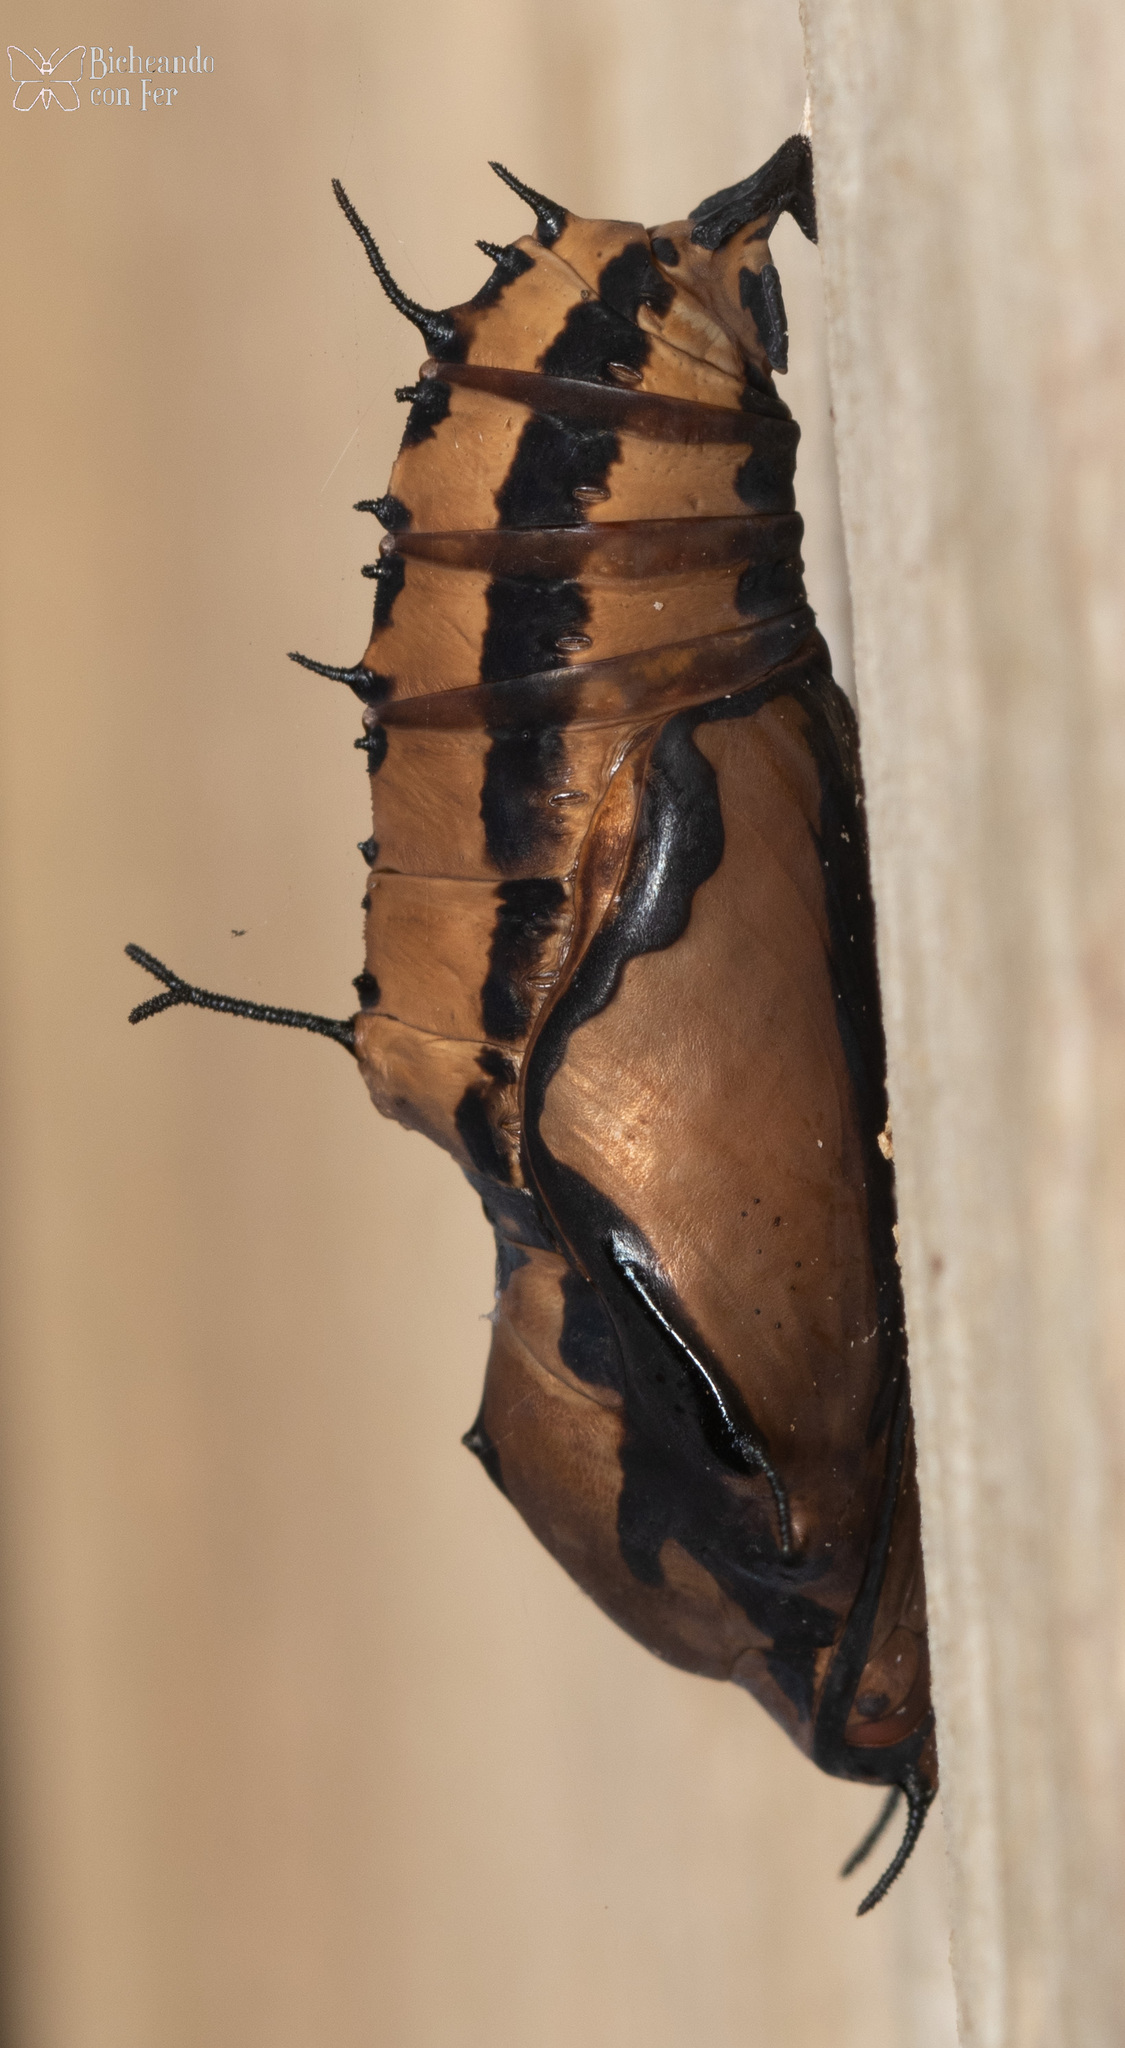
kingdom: Animalia
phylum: Arthropoda
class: Insecta
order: Lepidoptera
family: Nymphalidae
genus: Marpesia
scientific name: Marpesia petreus
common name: Red dagger wing
